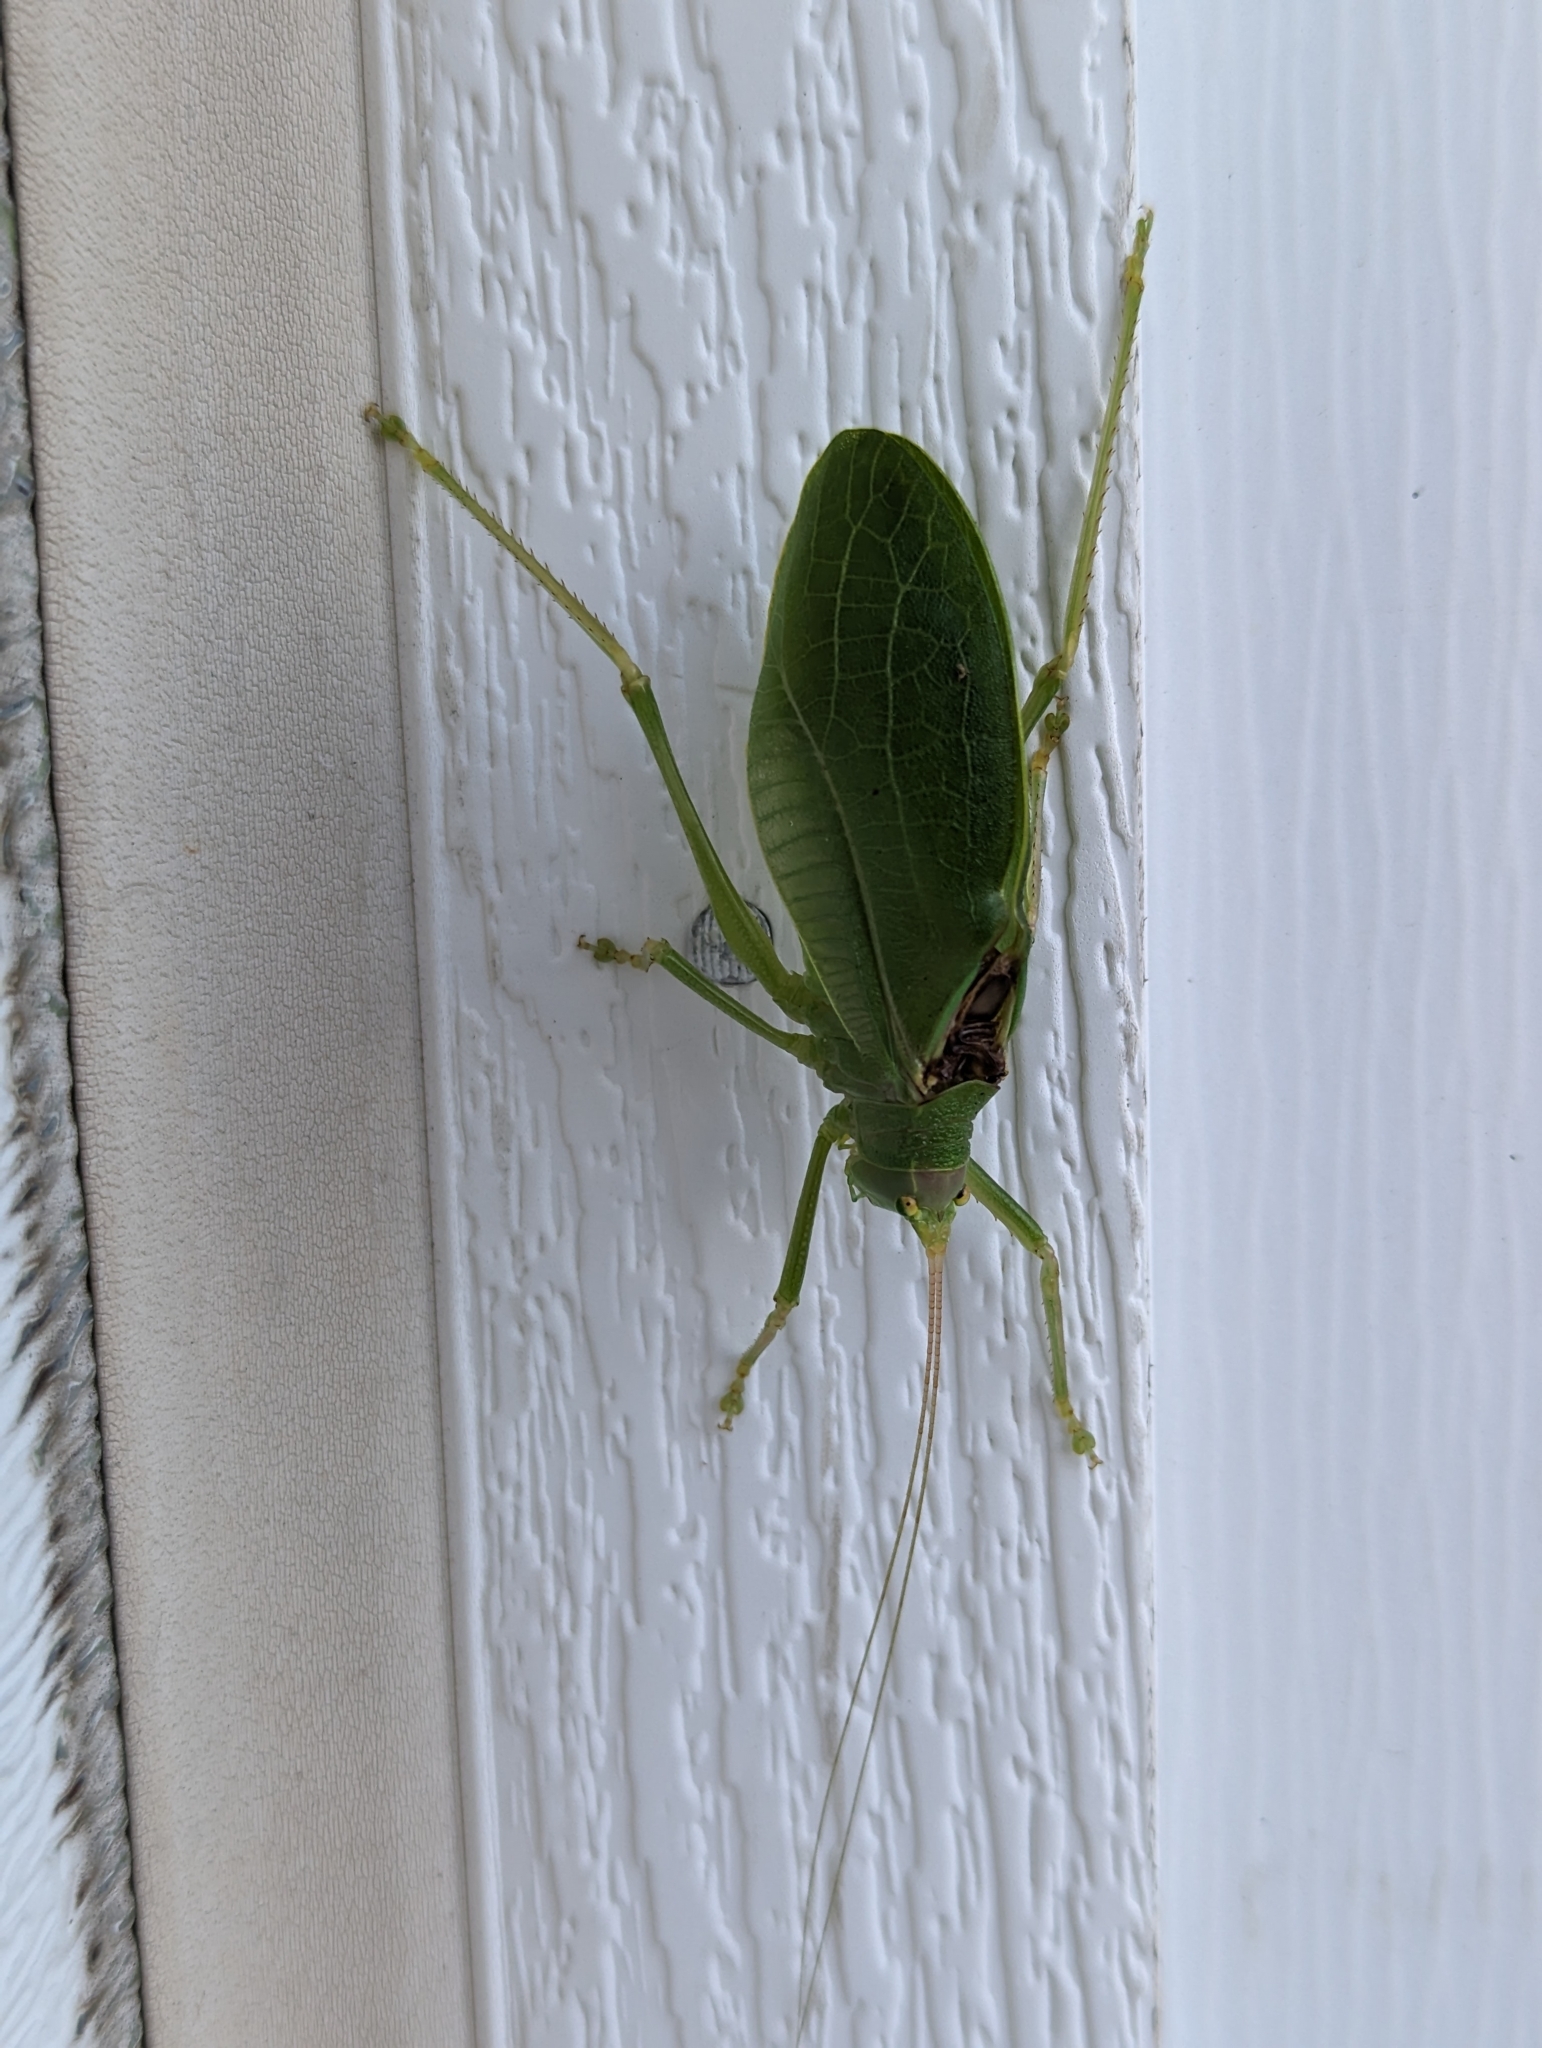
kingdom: Animalia
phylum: Arthropoda
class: Insecta
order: Orthoptera
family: Tettigoniidae
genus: Pterophylla
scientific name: Pterophylla camellifolia
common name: Common true katydid
